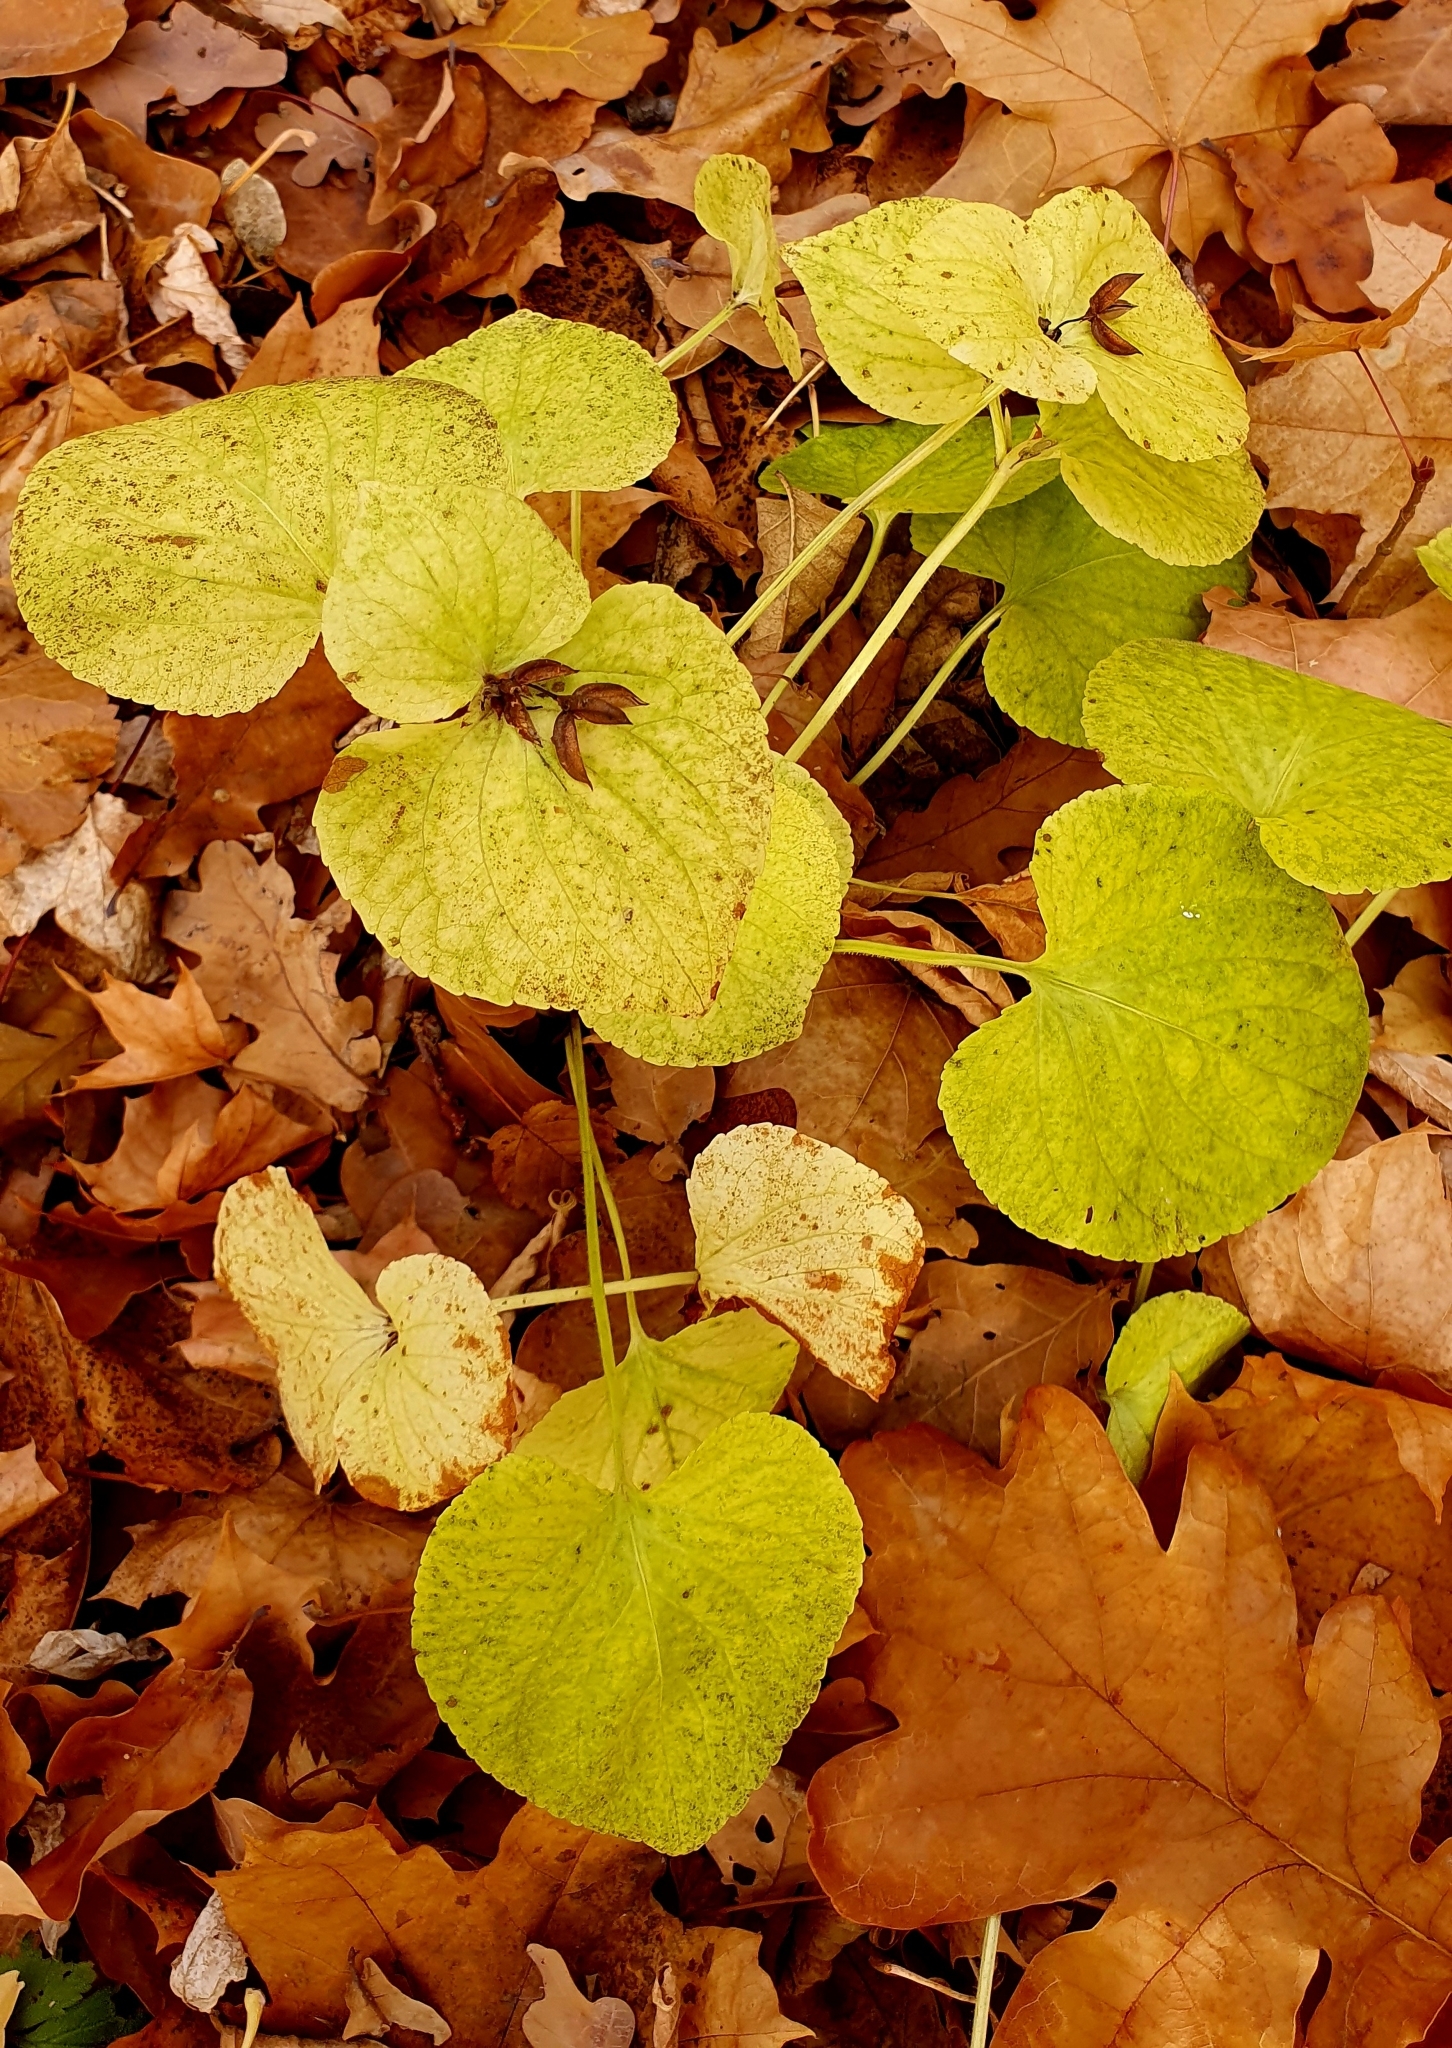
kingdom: Plantae
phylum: Tracheophyta
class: Magnoliopsida
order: Malpighiales
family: Violaceae
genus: Viola
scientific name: Viola mirabilis
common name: Wonder violet
